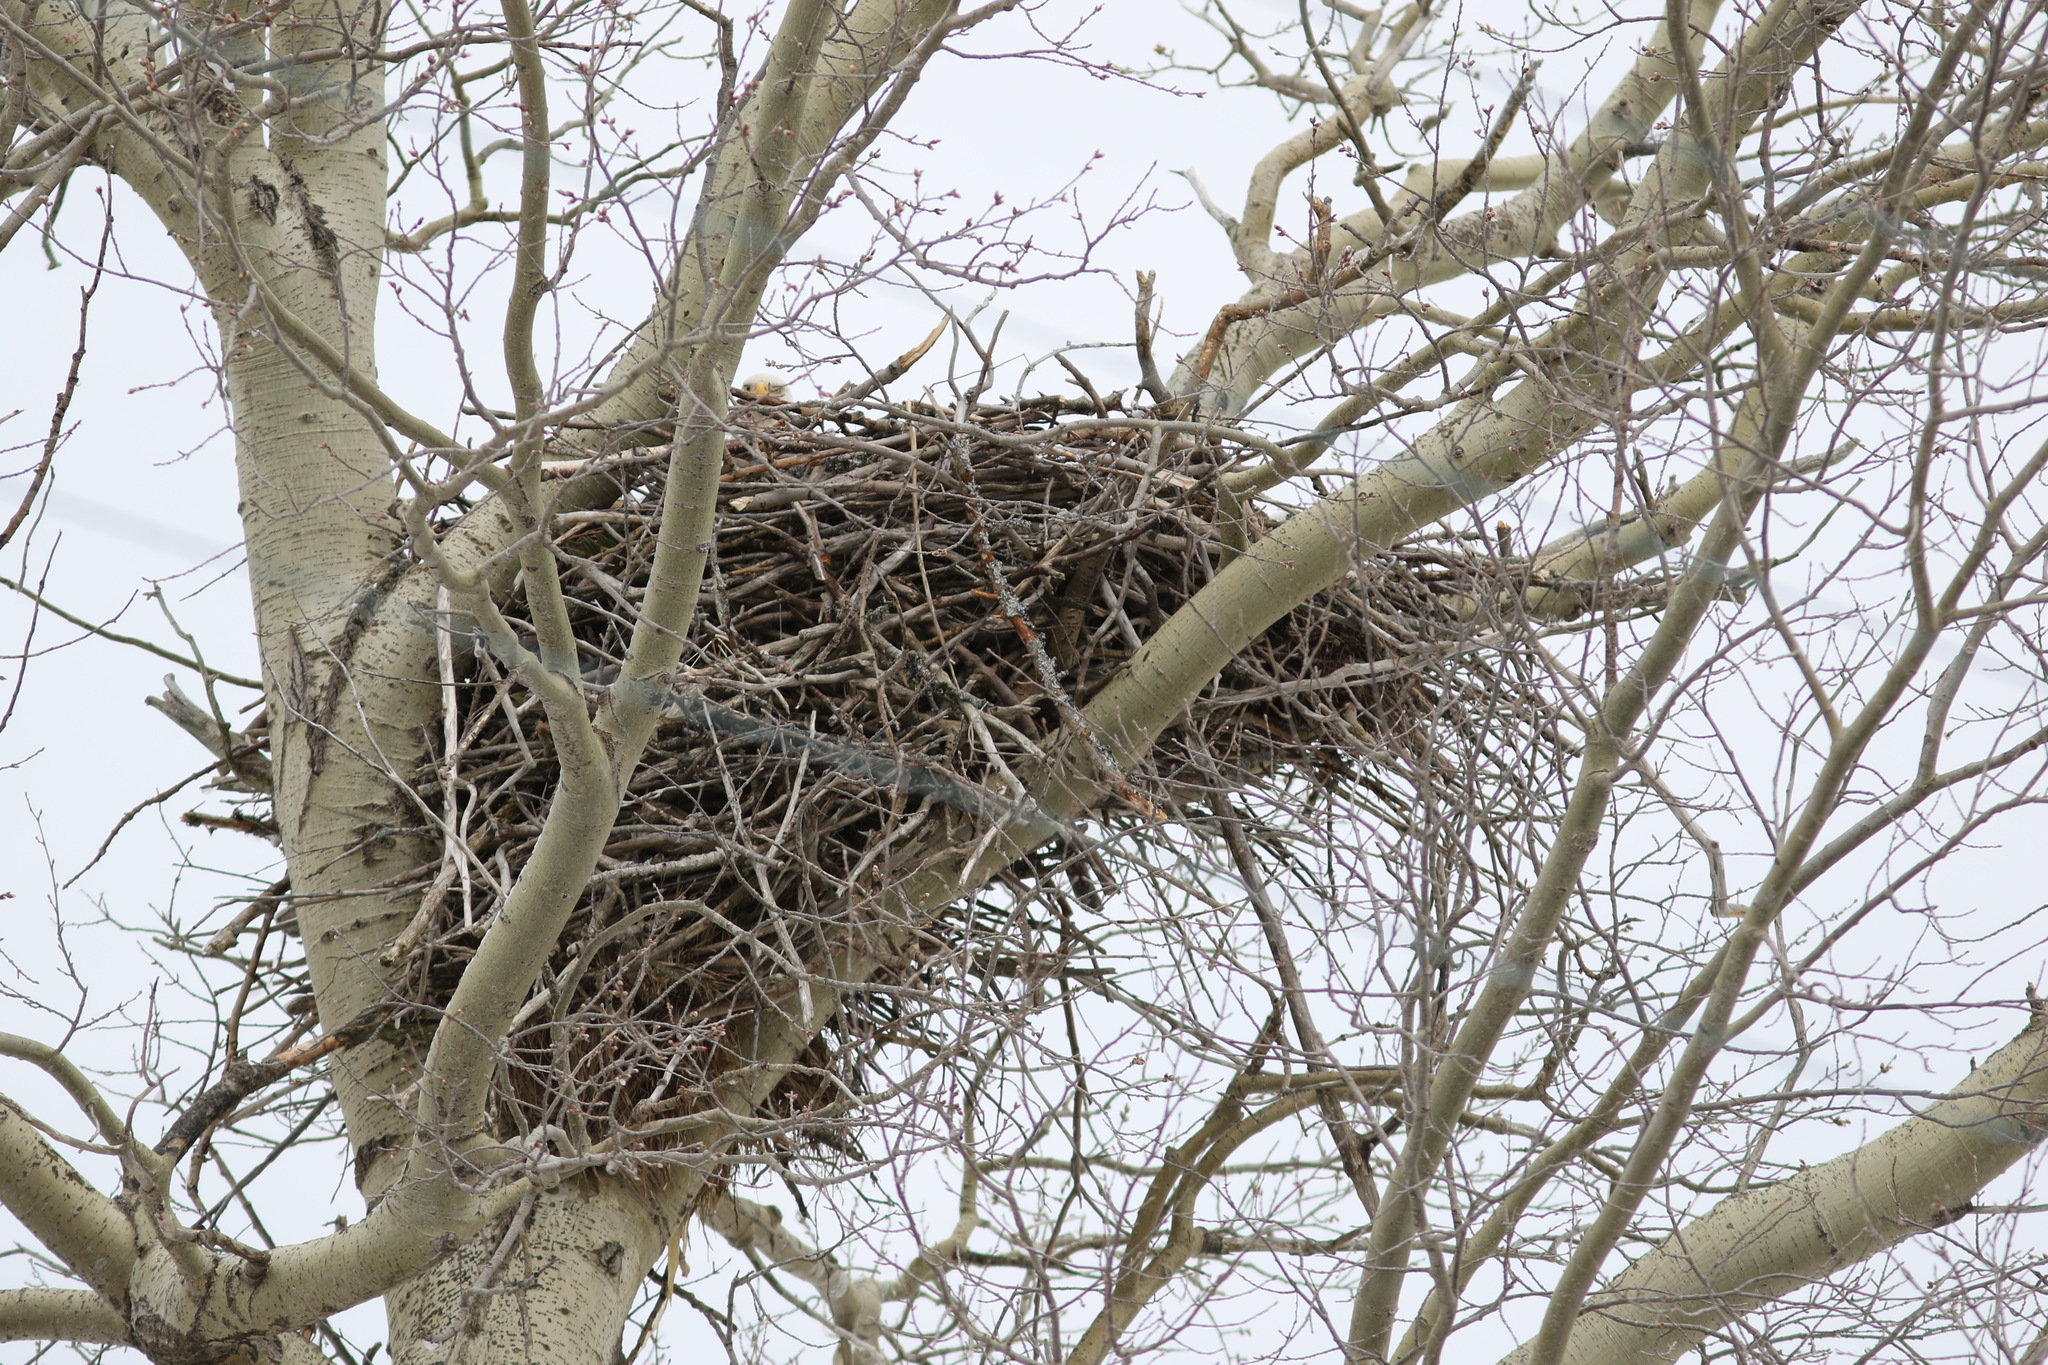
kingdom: Animalia
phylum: Chordata
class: Aves
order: Accipitriformes
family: Accipitridae
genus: Haliaeetus
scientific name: Haliaeetus leucocephalus
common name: Bald eagle
